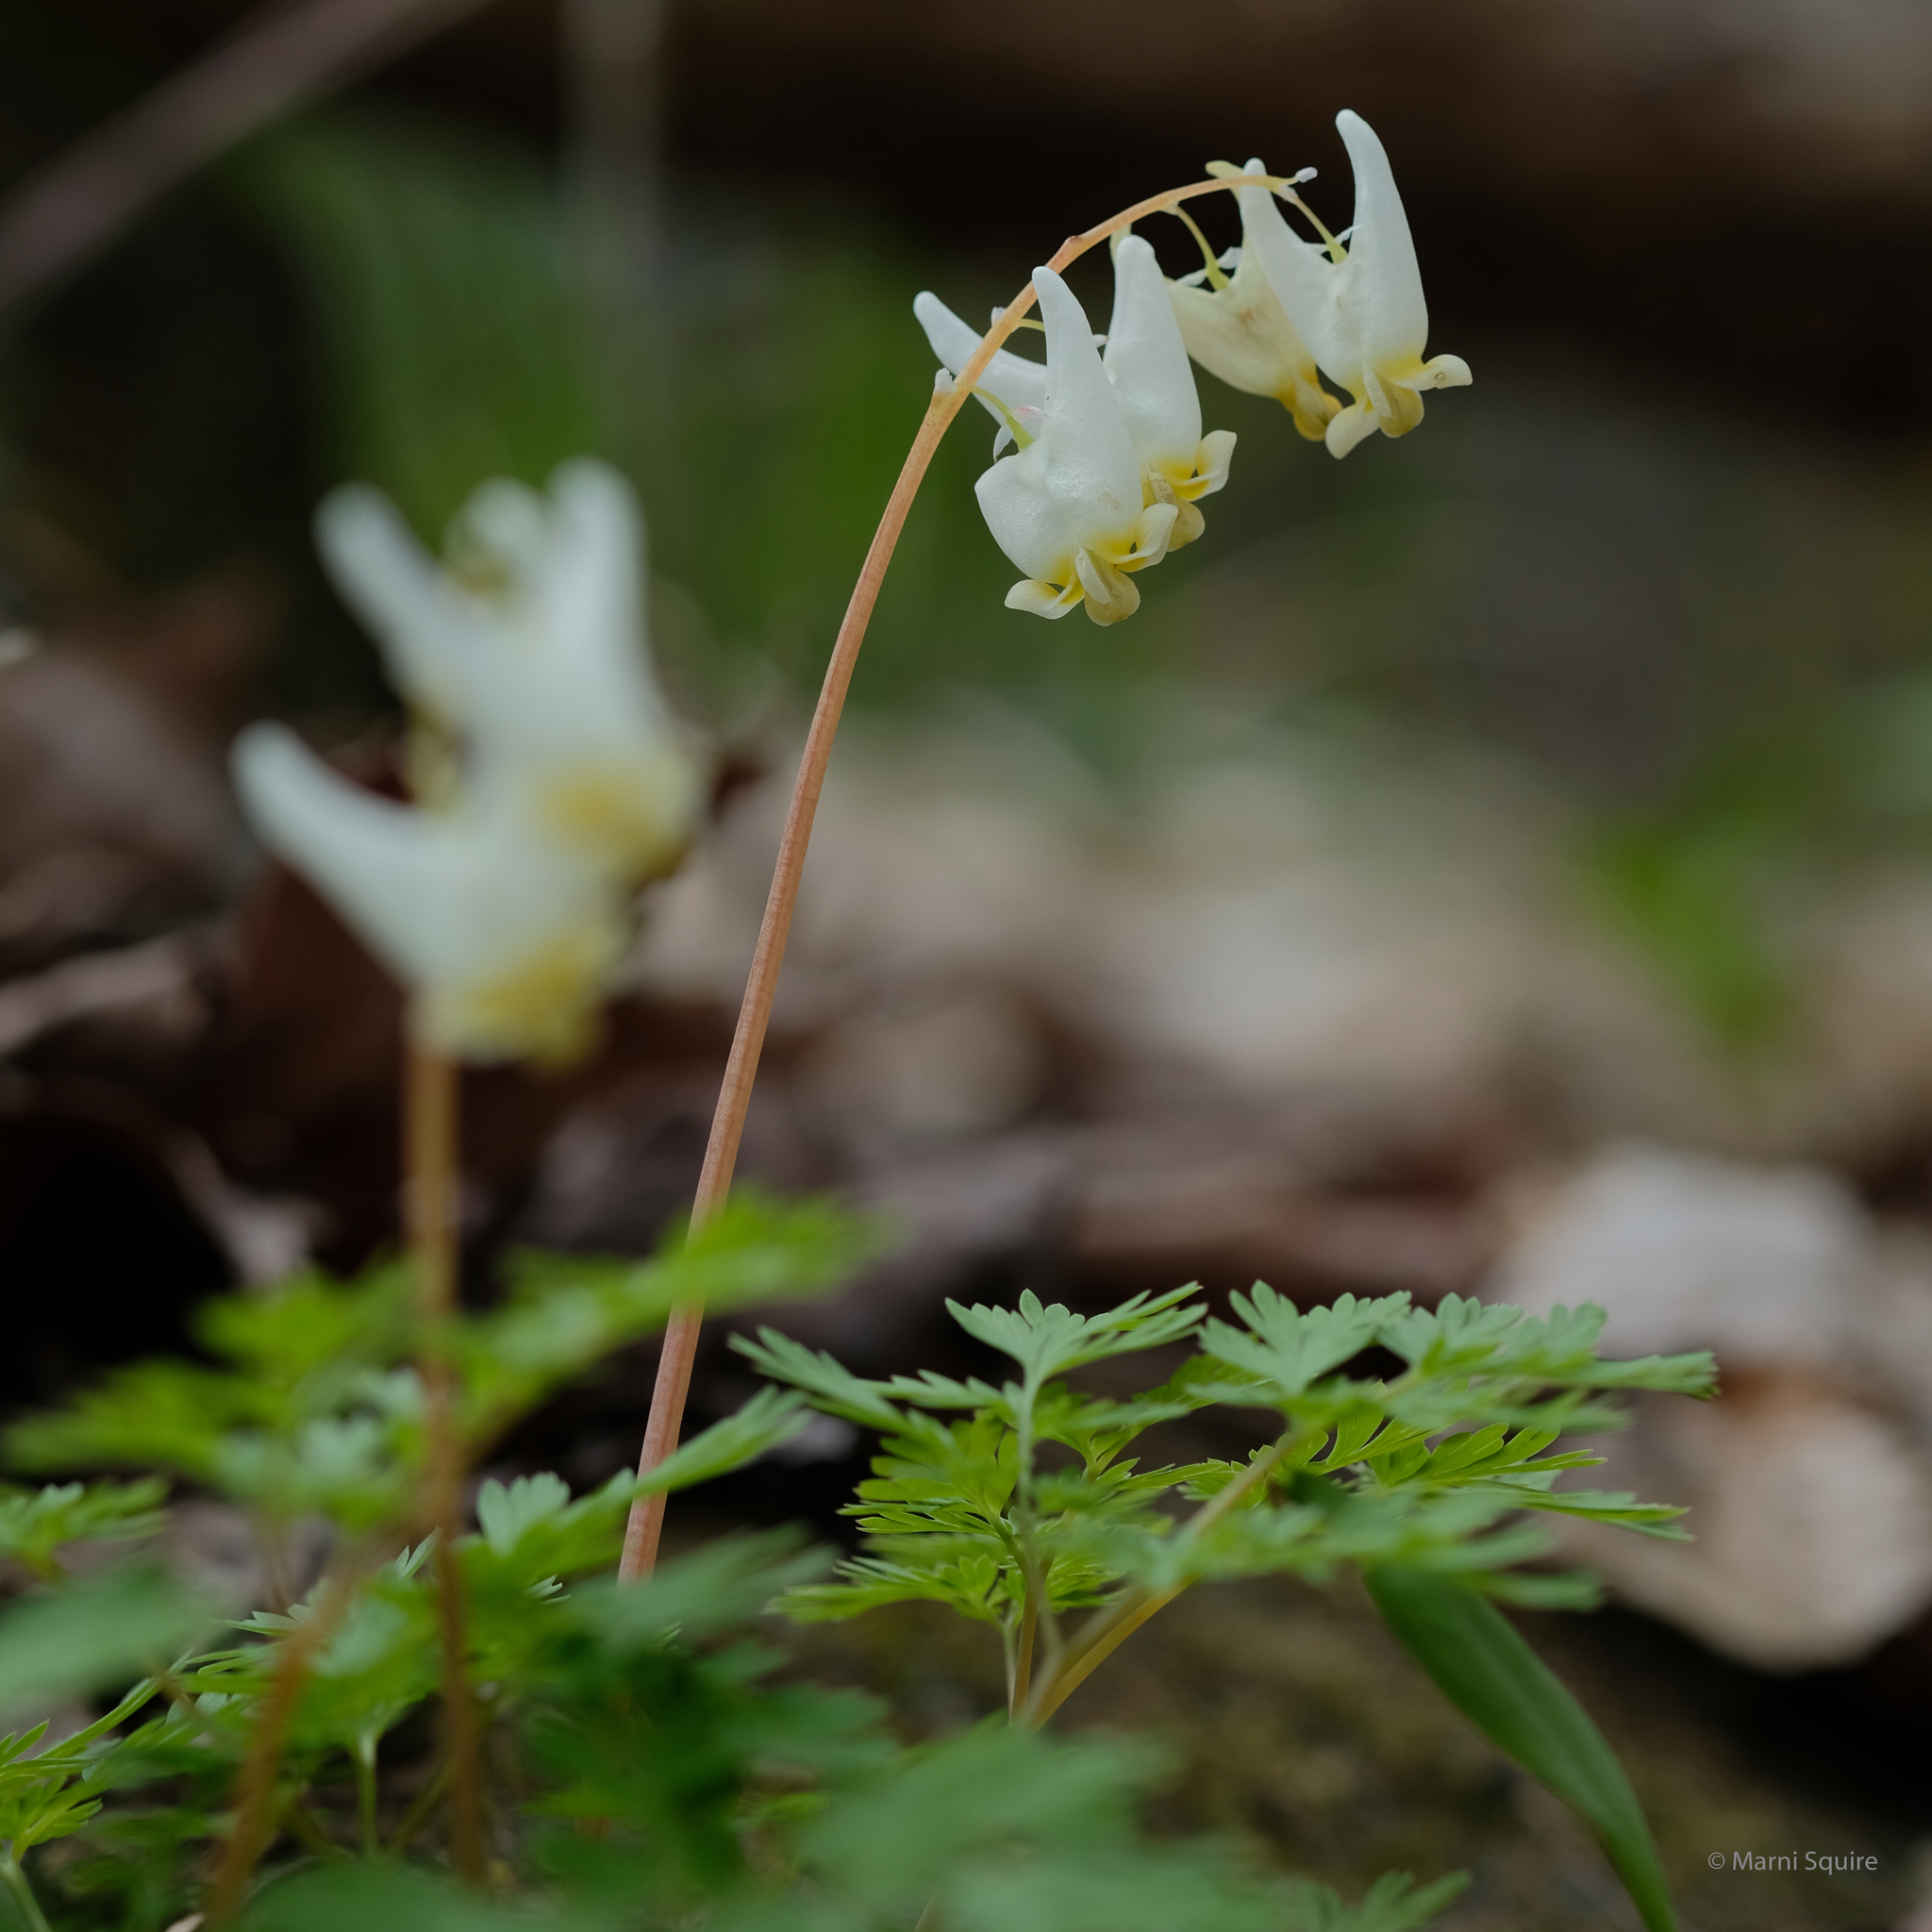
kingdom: Plantae
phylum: Tracheophyta
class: Magnoliopsida
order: Ranunculales
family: Papaveraceae
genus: Dicentra
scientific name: Dicentra cucullaria
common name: Dutchman's breeches
